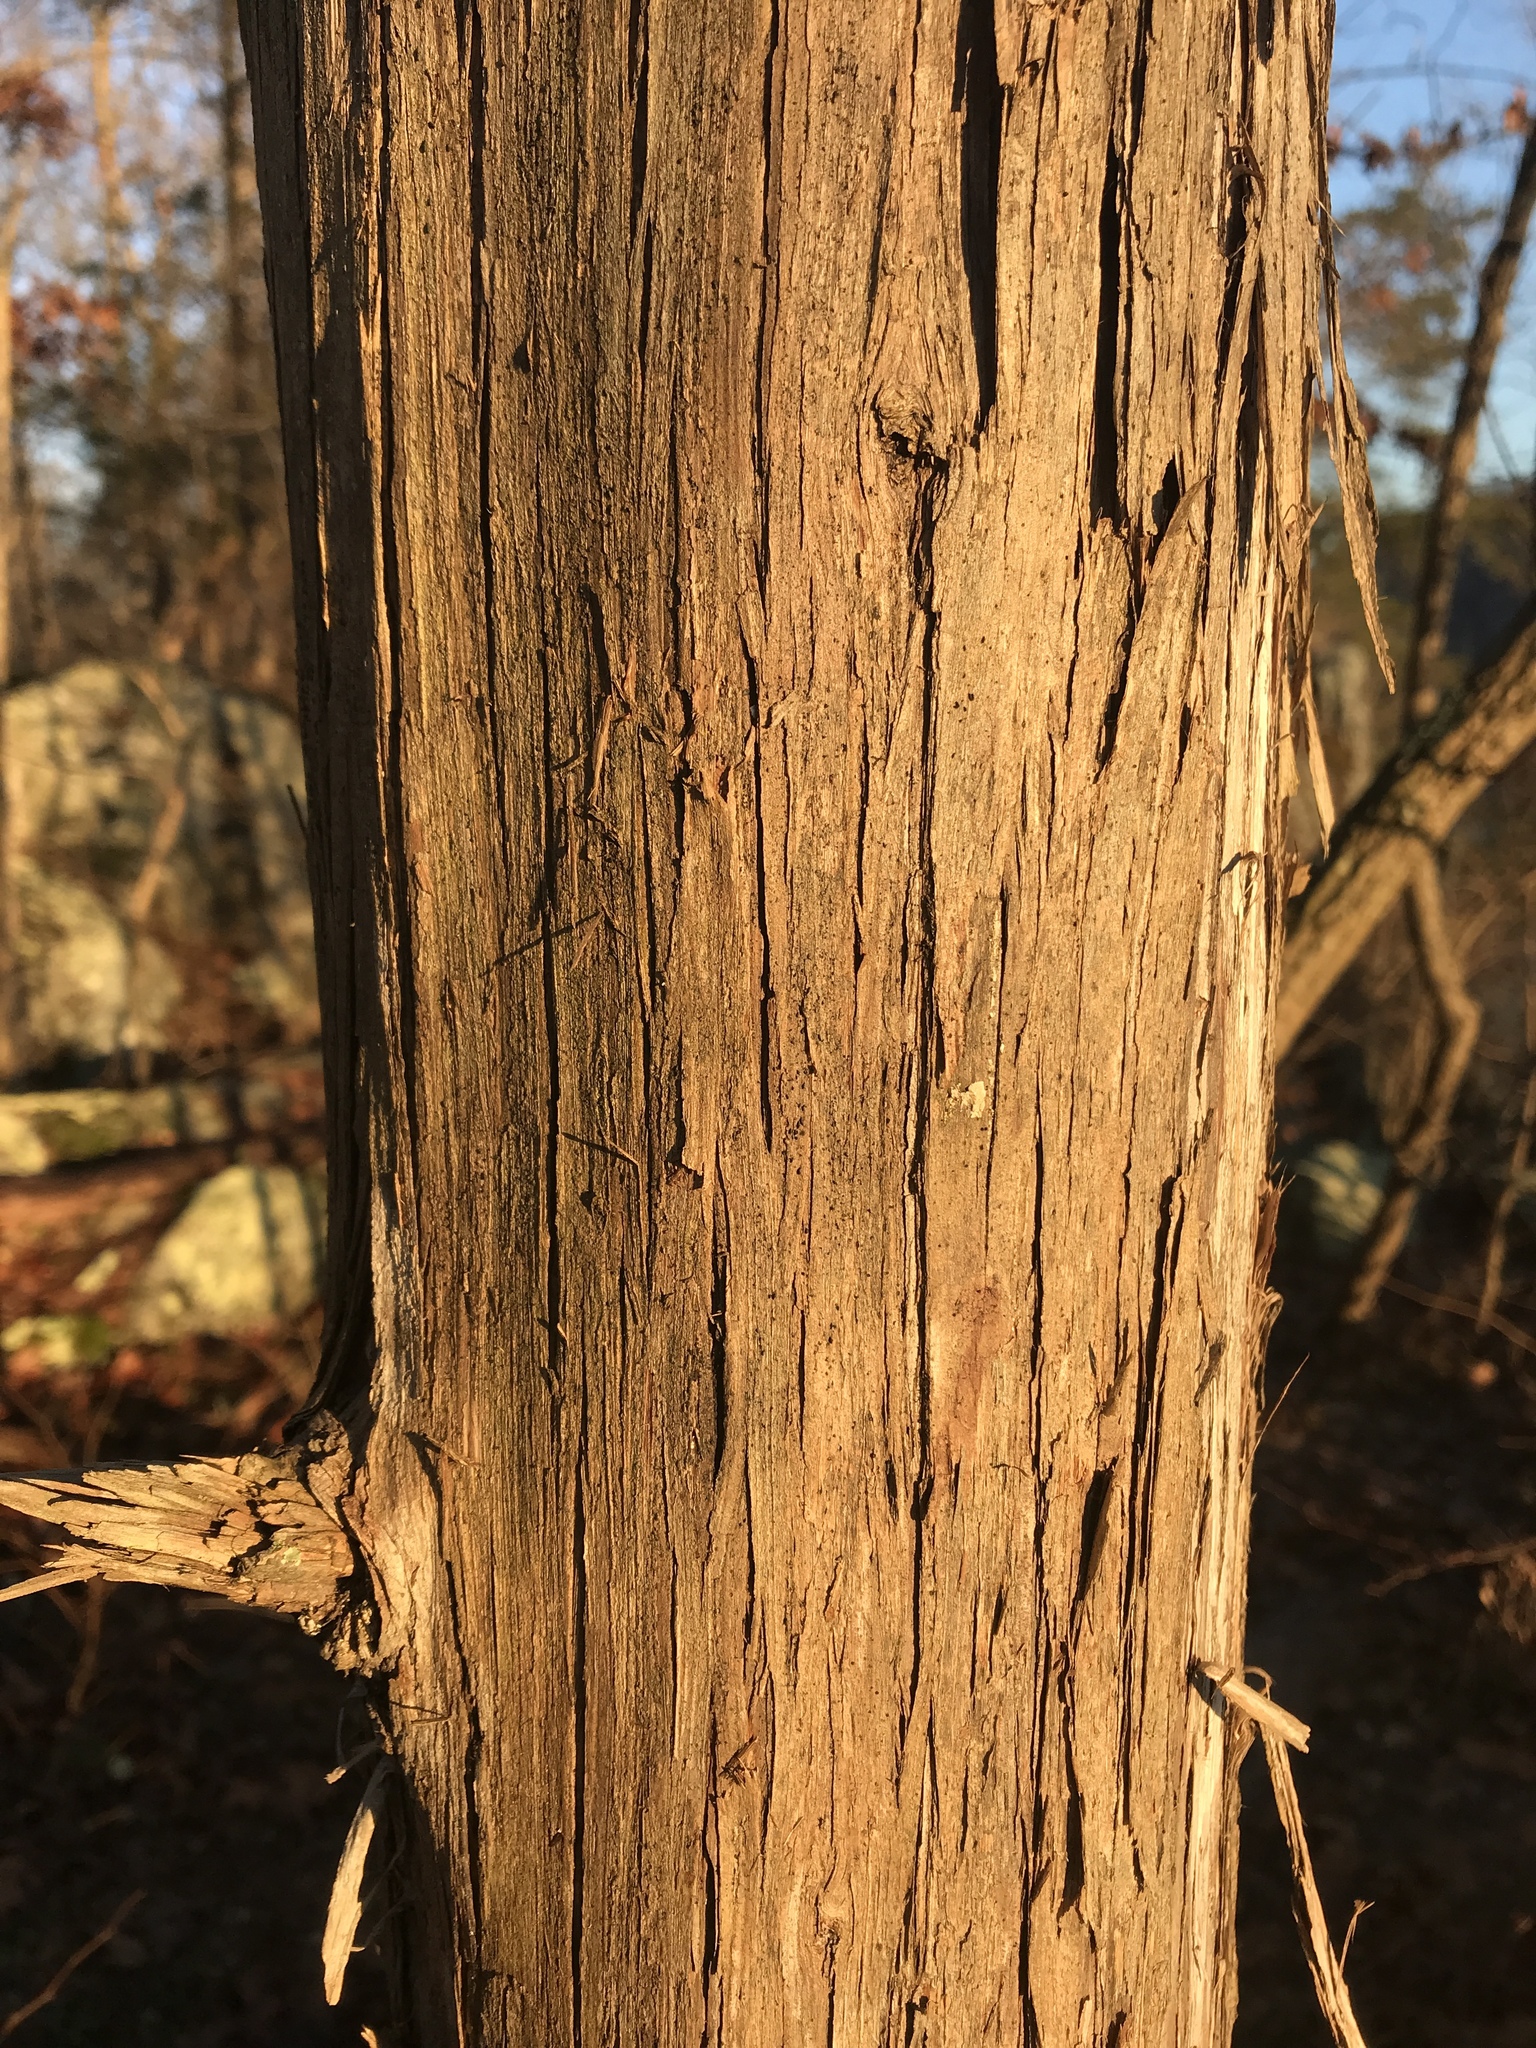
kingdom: Plantae
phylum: Tracheophyta
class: Pinopsida
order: Pinales
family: Cupressaceae
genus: Juniperus
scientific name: Juniperus virginiana
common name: Red juniper
